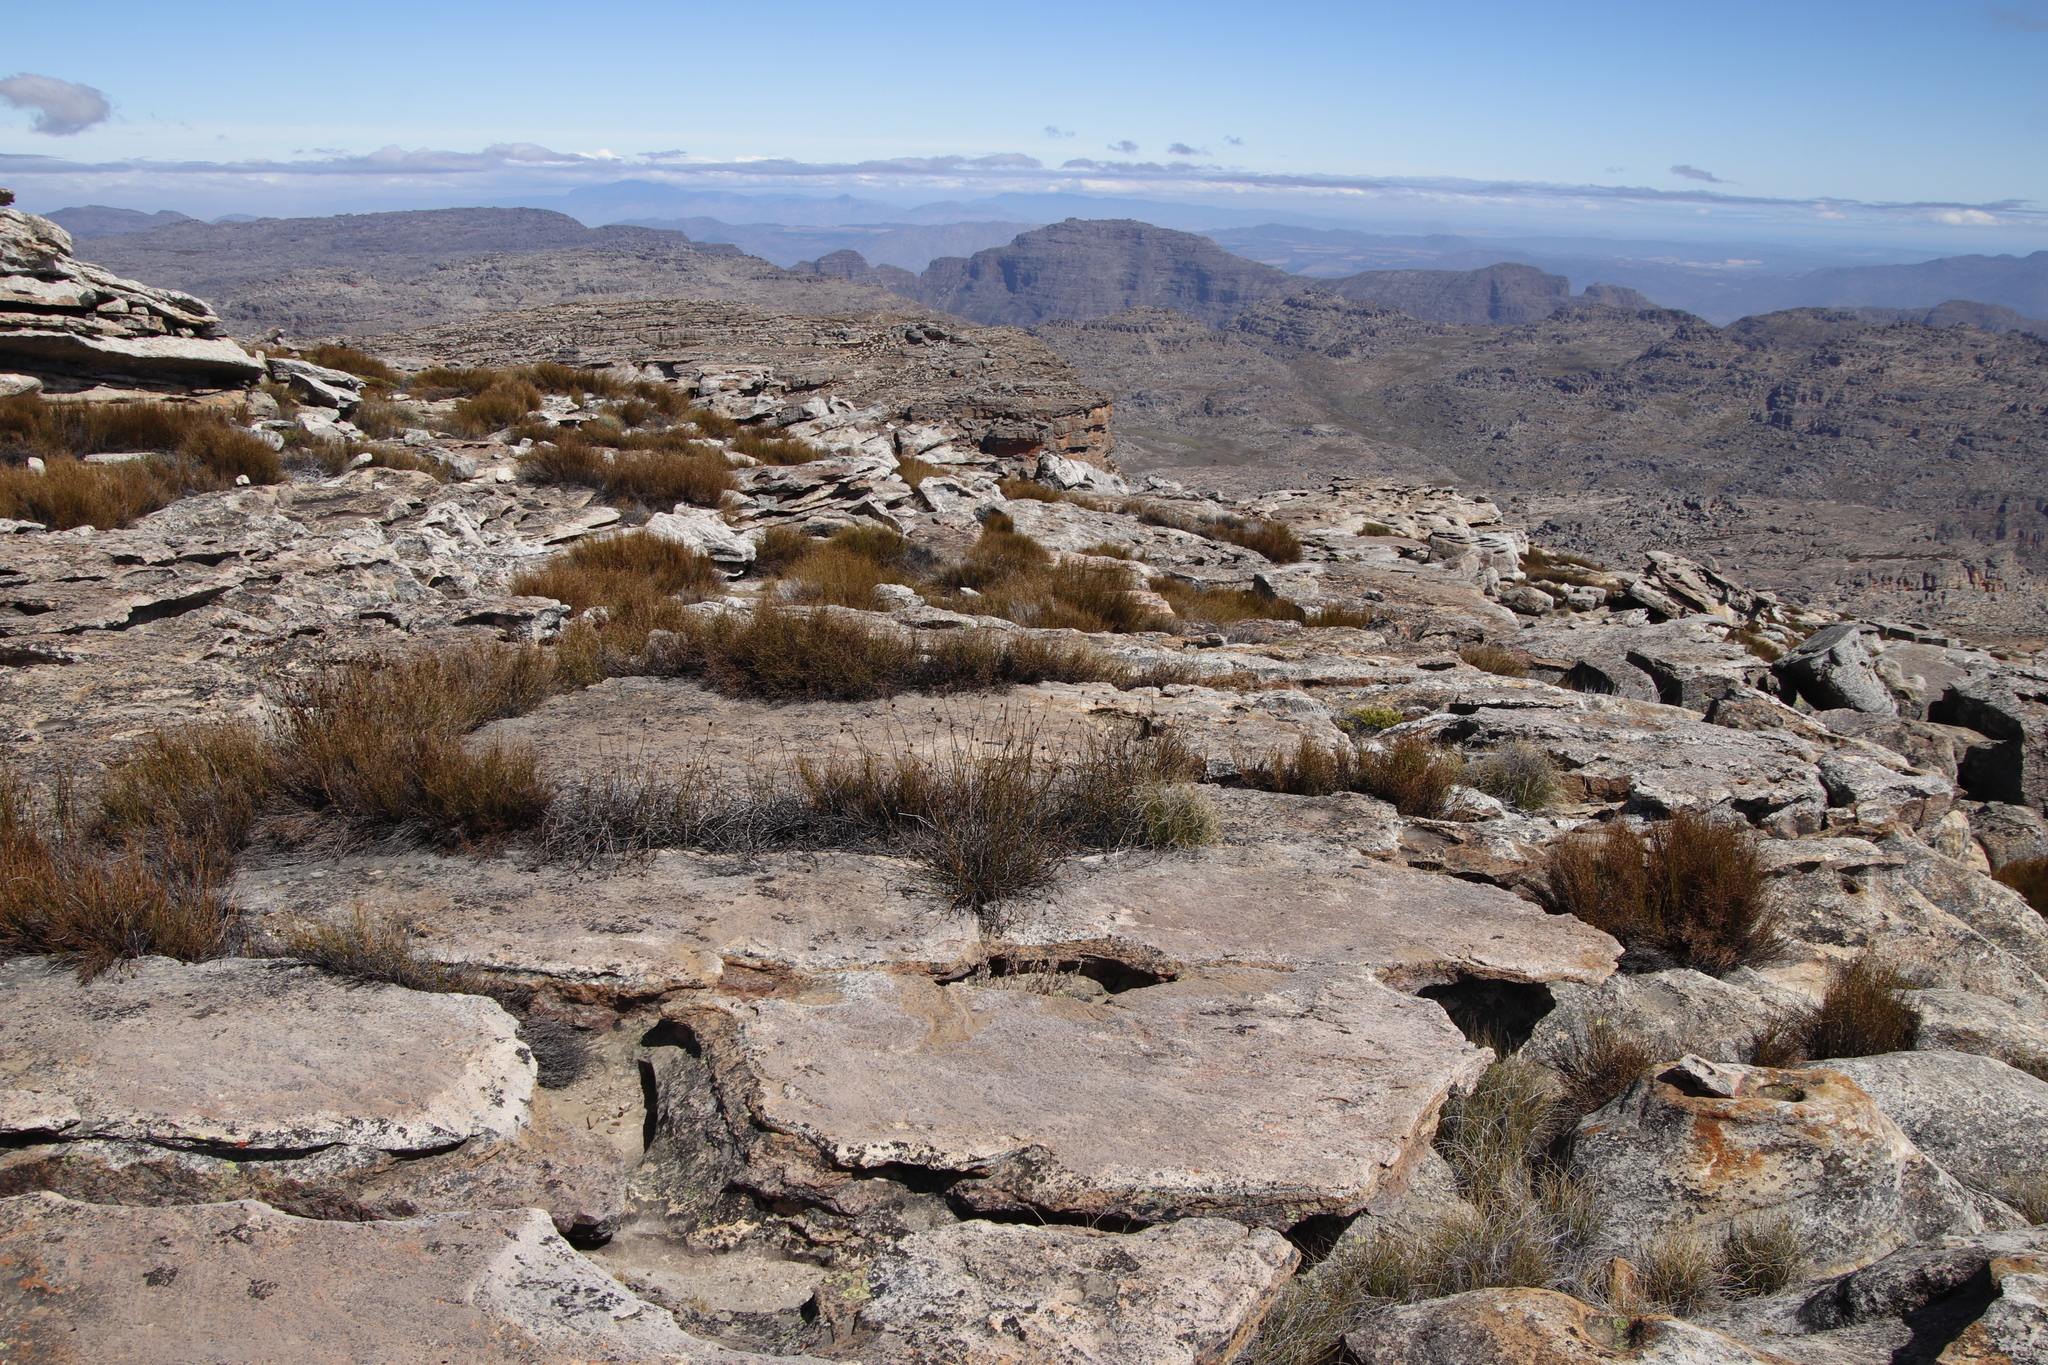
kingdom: Plantae
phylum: Tracheophyta
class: Liliopsida
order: Poales
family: Restionaceae
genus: Restio
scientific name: Restio constipatus
